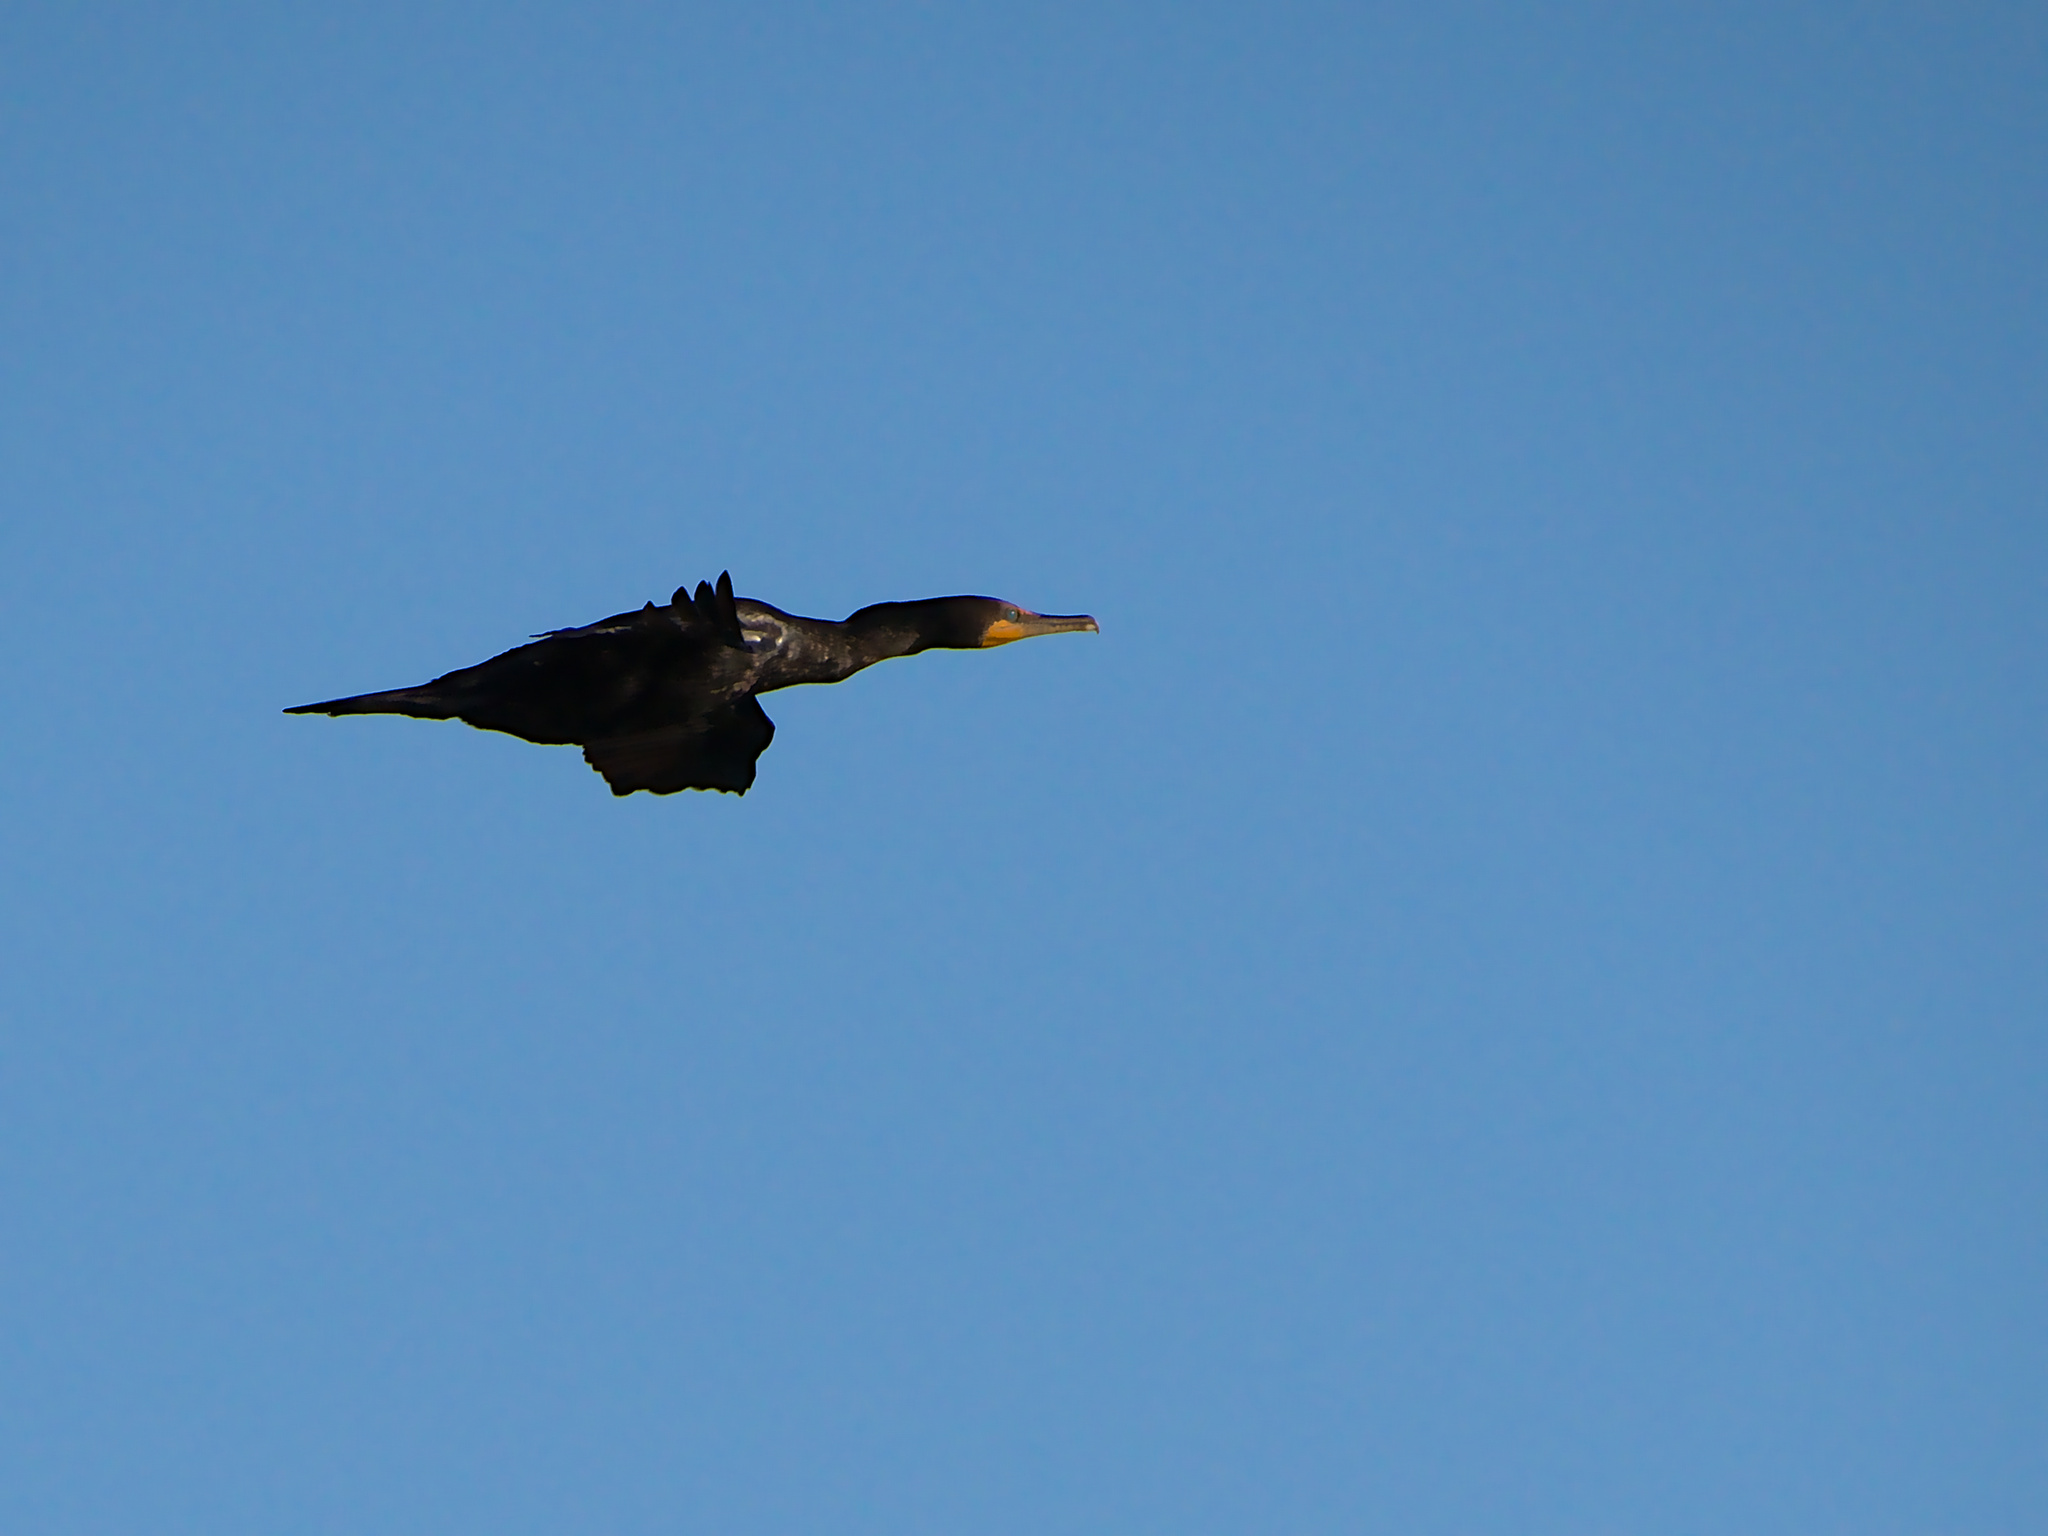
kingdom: Animalia
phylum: Chordata
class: Aves
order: Suliformes
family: Phalacrocoracidae
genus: Phalacrocorax
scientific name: Phalacrocorax auritus
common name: Double-crested cormorant
